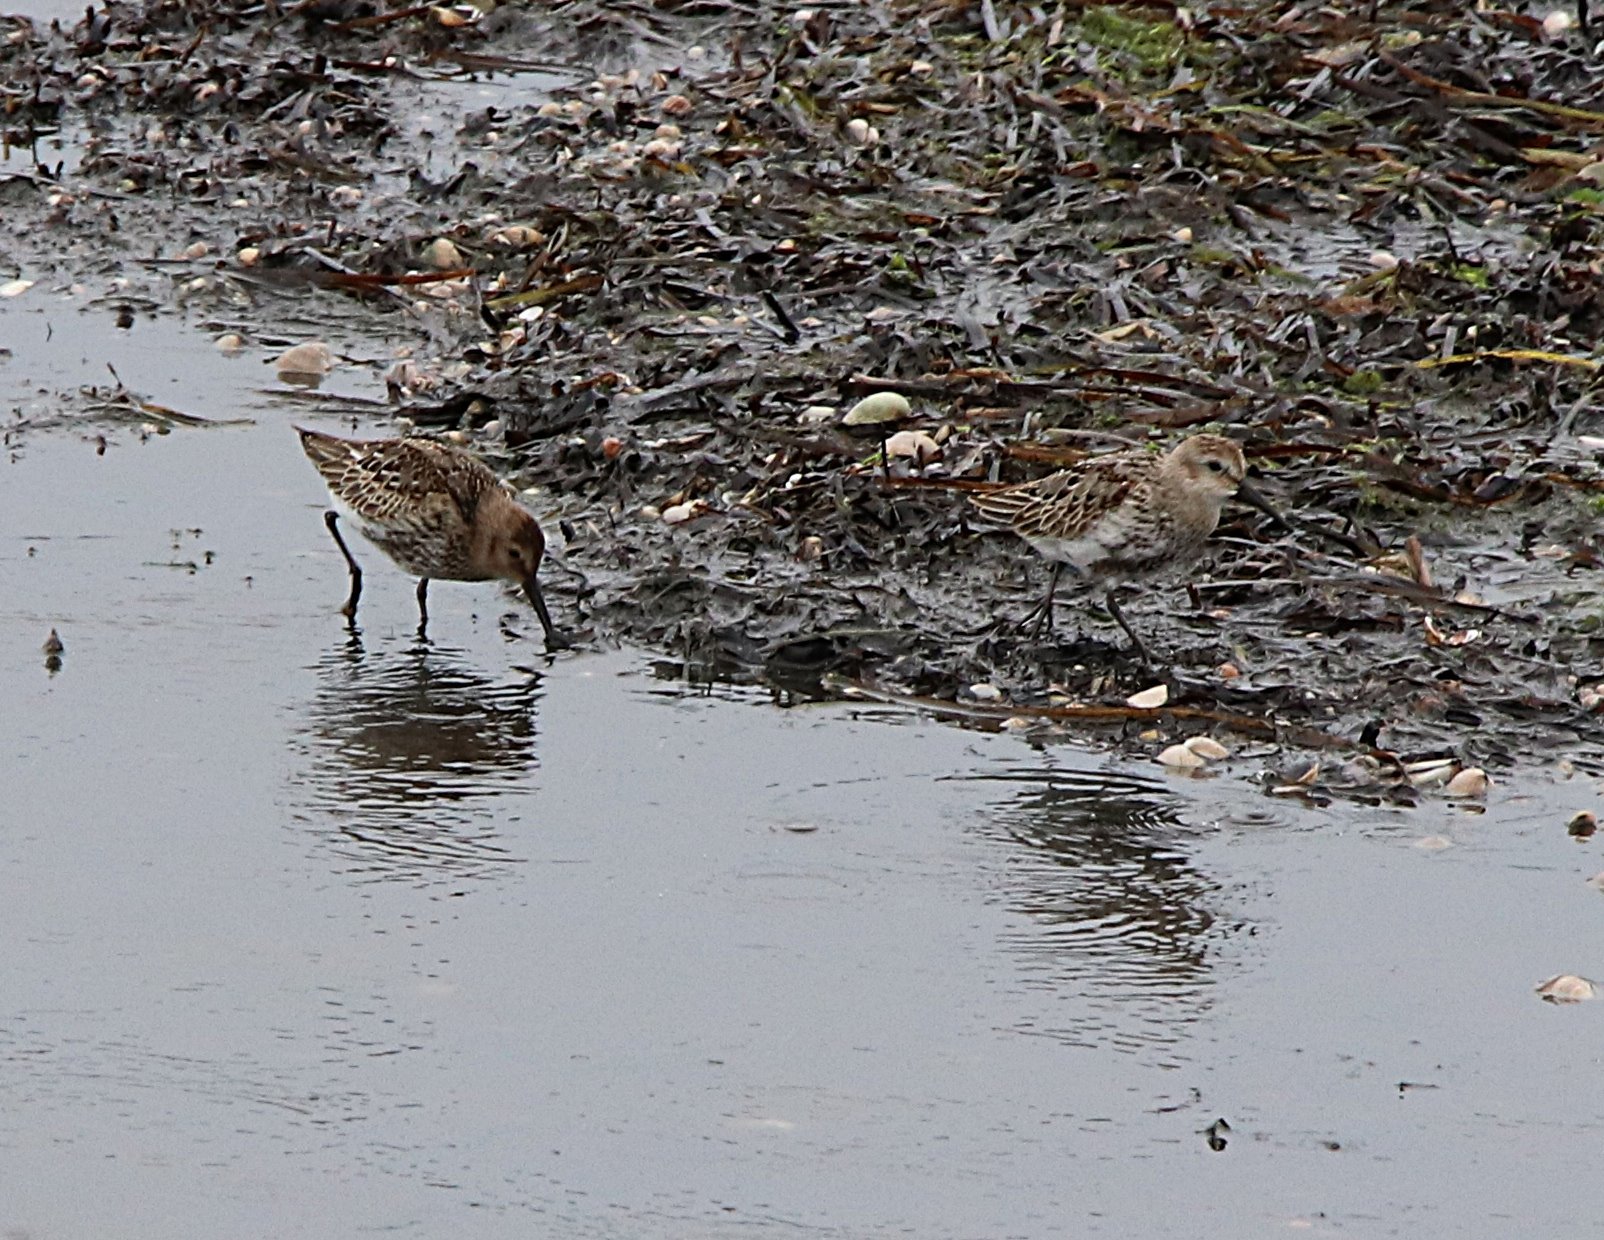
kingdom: Animalia
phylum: Chordata
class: Aves
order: Charadriiformes
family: Scolopacidae
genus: Calidris
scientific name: Calidris alpina
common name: Dunlin
